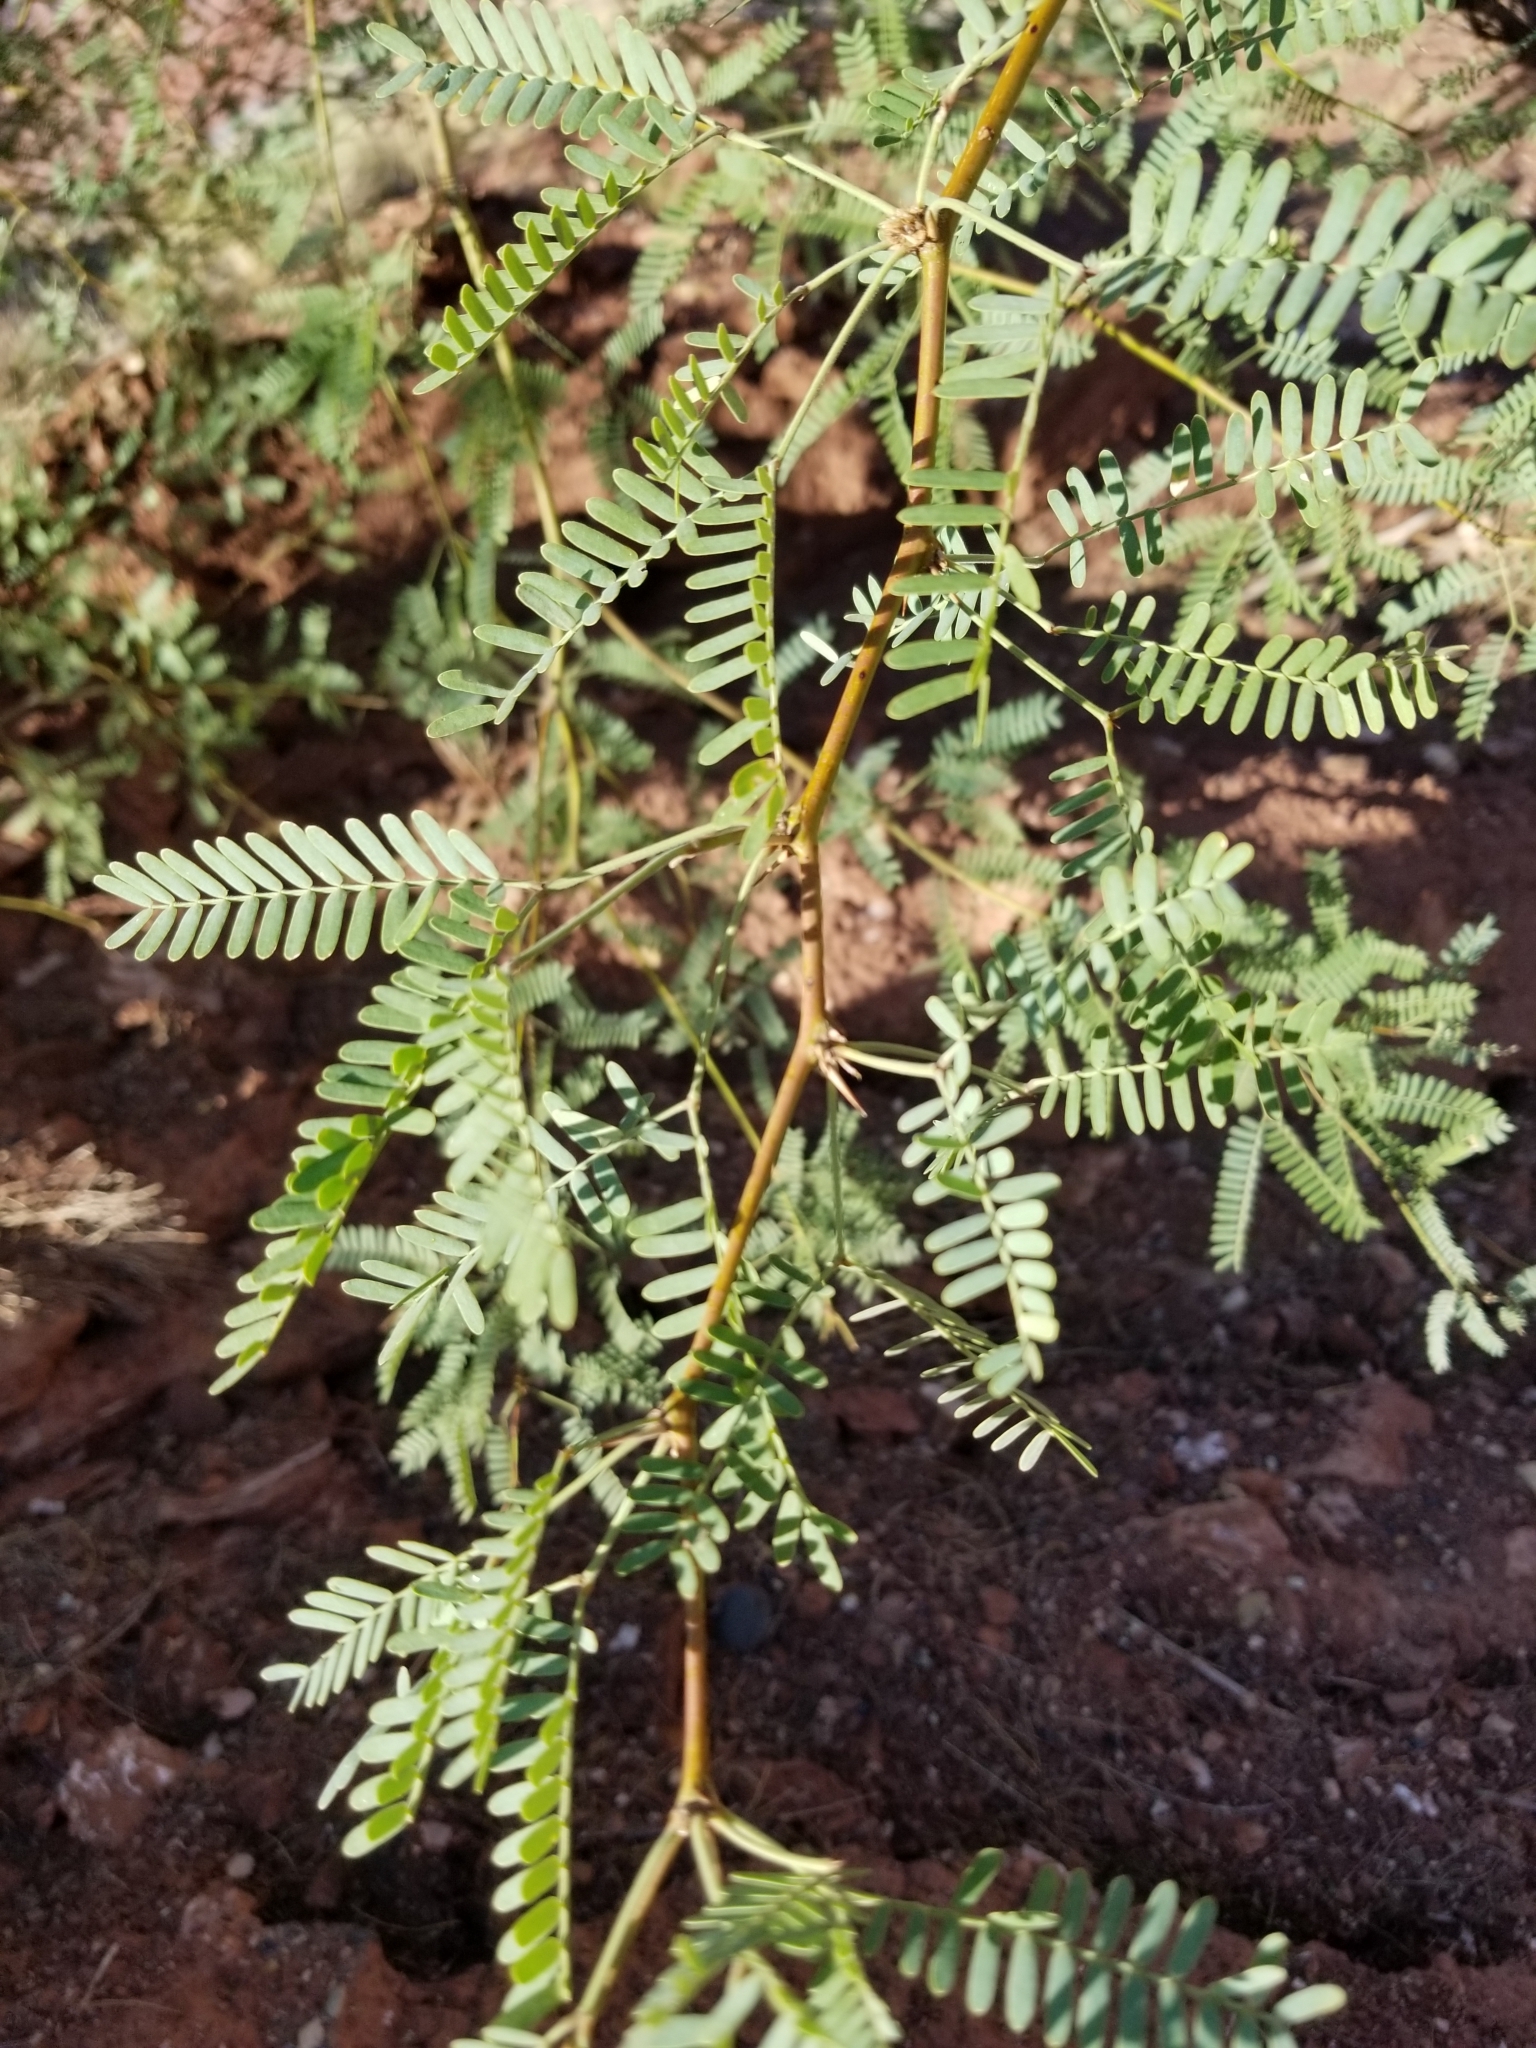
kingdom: Plantae
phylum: Tracheophyta
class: Magnoliopsida
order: Fabales
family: Fabaceae
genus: Prosopis
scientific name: Prosopis velutina
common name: Velvet mesquite
